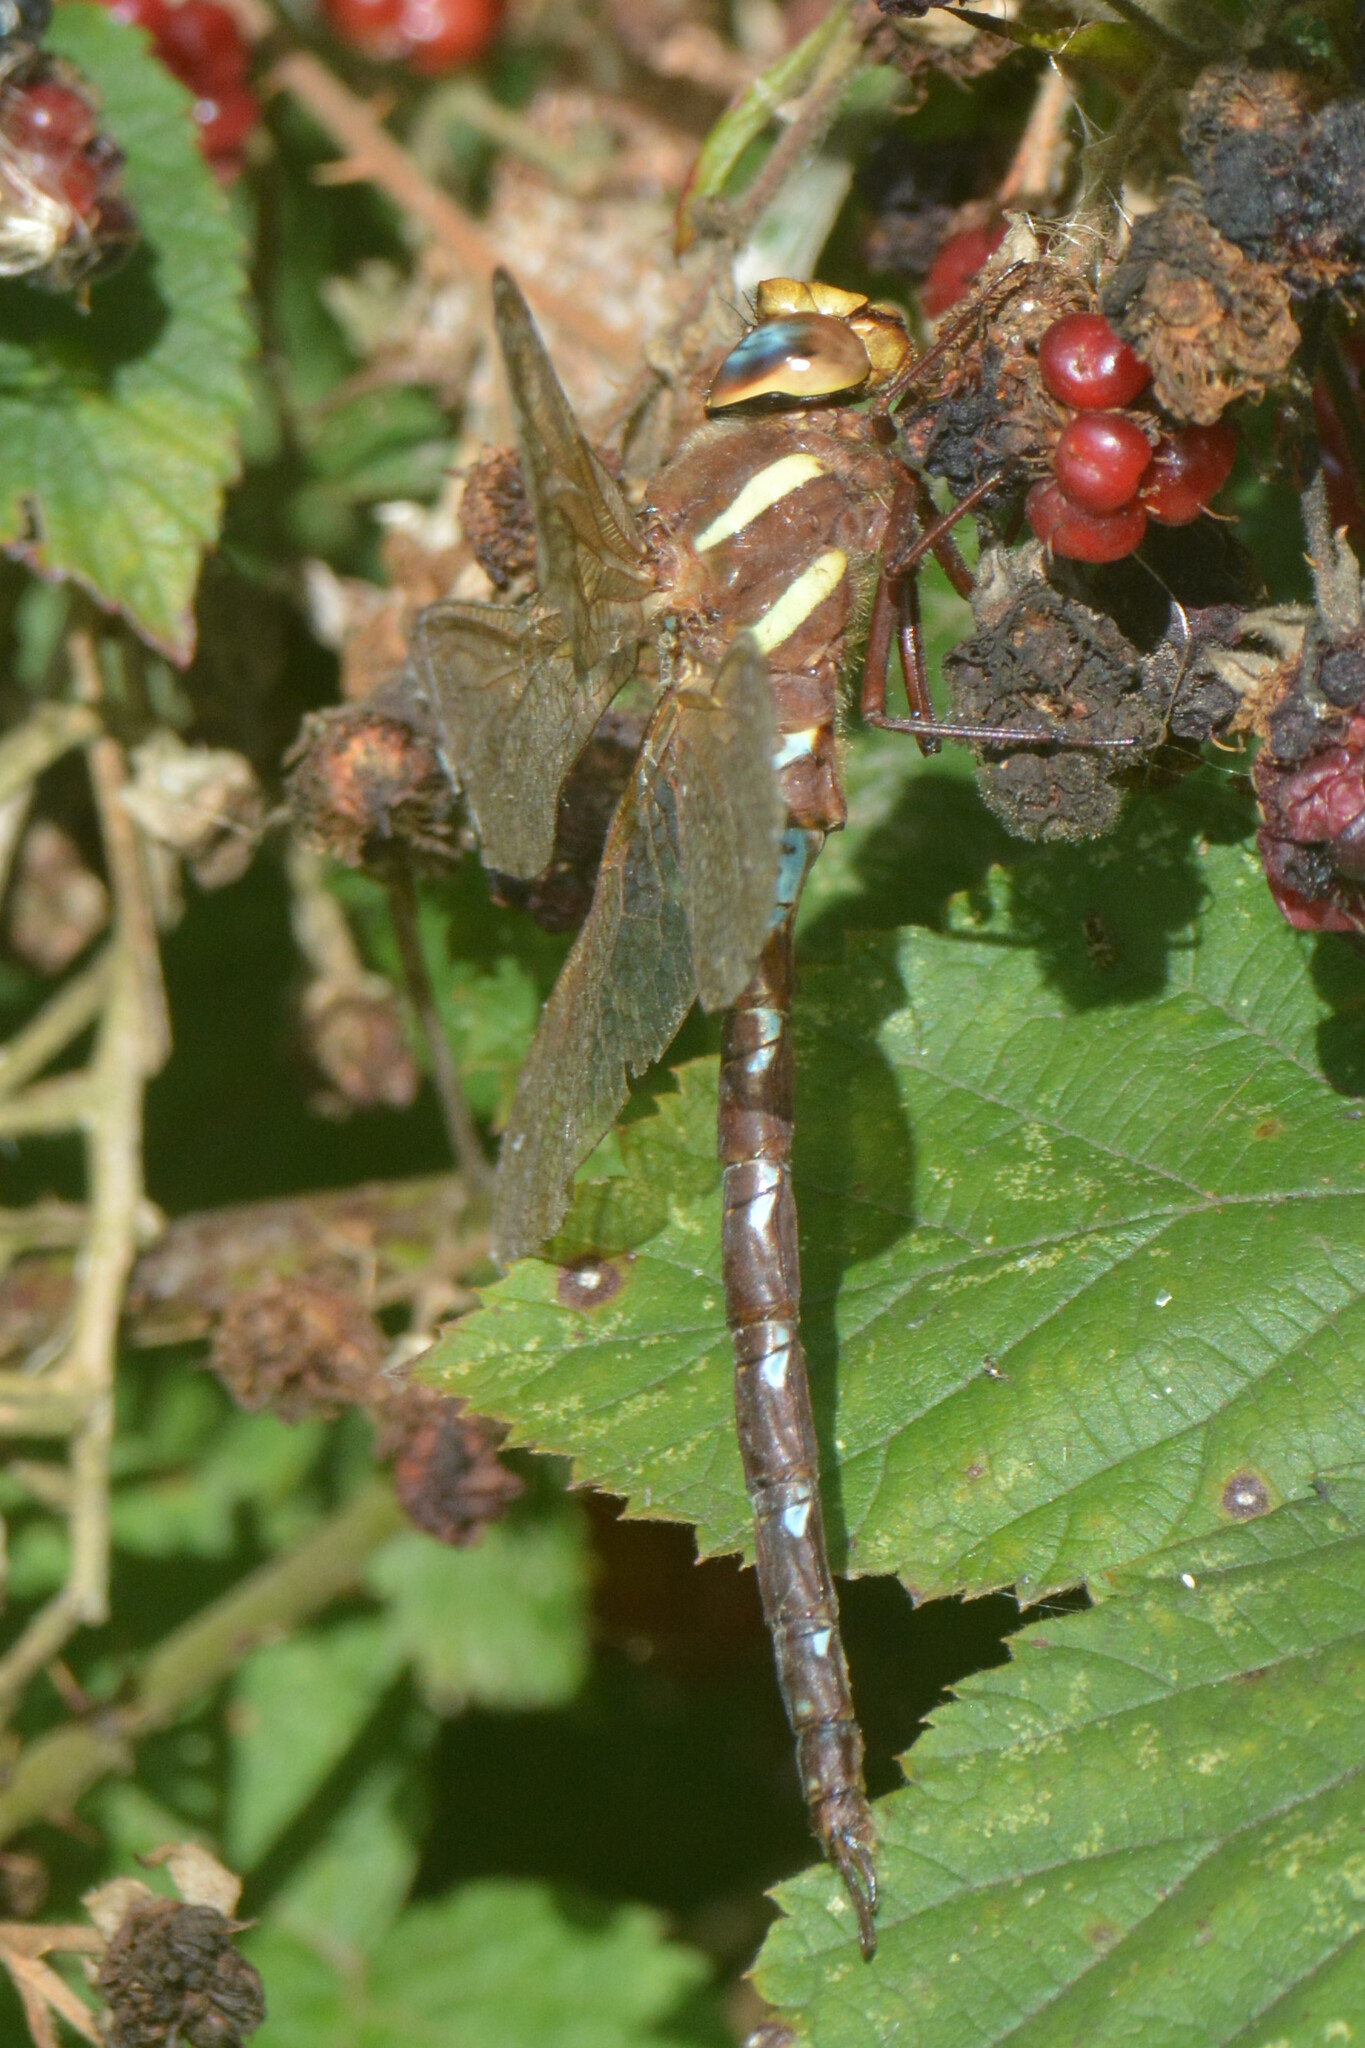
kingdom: Animalia
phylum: Arthropoda
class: Insecta
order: Odonata
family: Aeshnidae
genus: Aeshna
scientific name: Aeshna grandis
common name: Brown hawker
